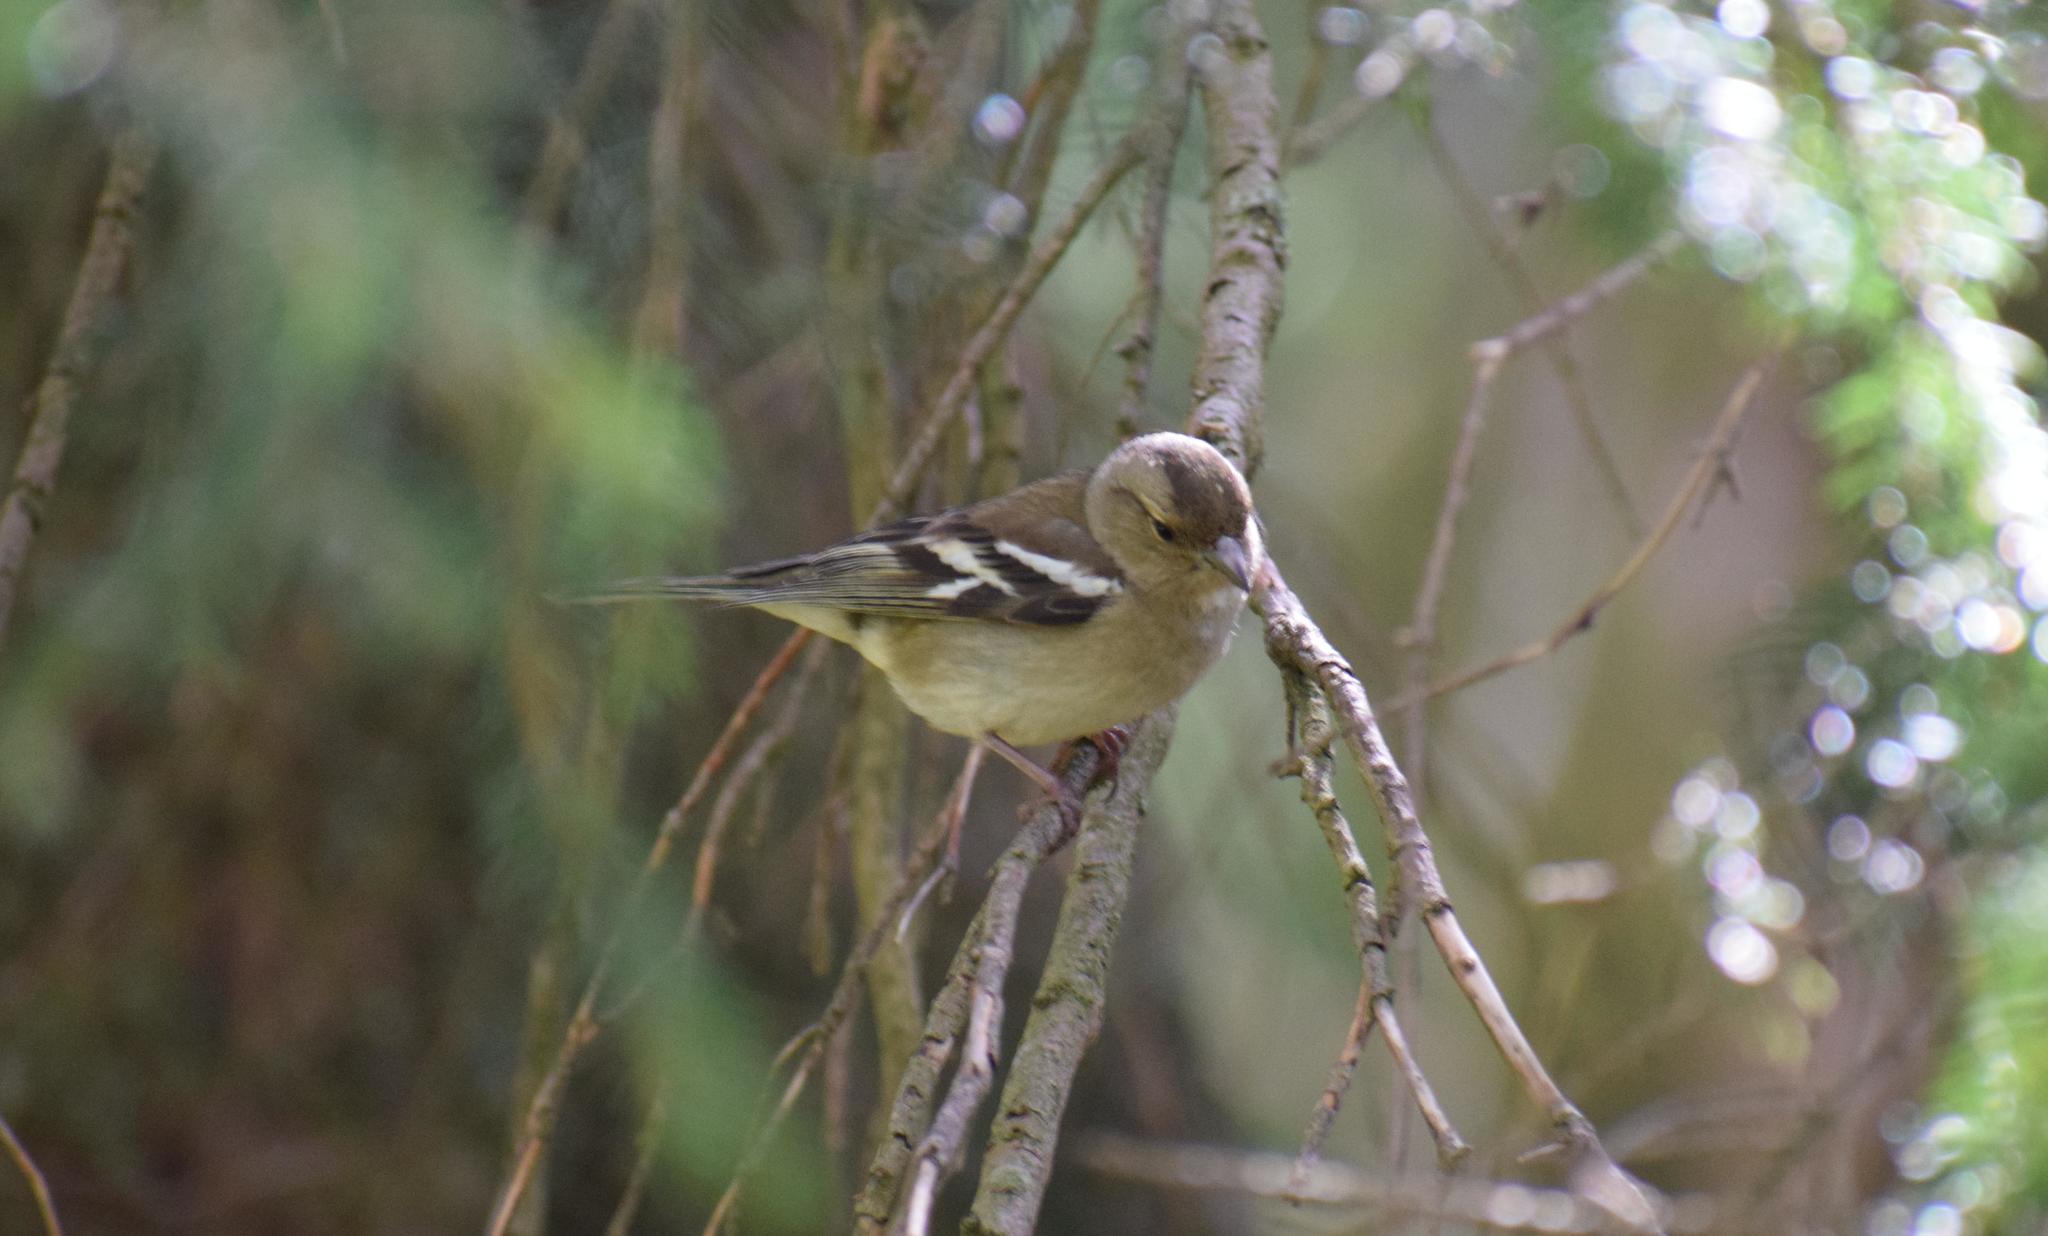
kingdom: Animalia
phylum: Chordata
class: Aves
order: Passeriformes
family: Fringillidae
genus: Fringilla
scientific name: Fringilla coelebs
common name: Common chaffinch
